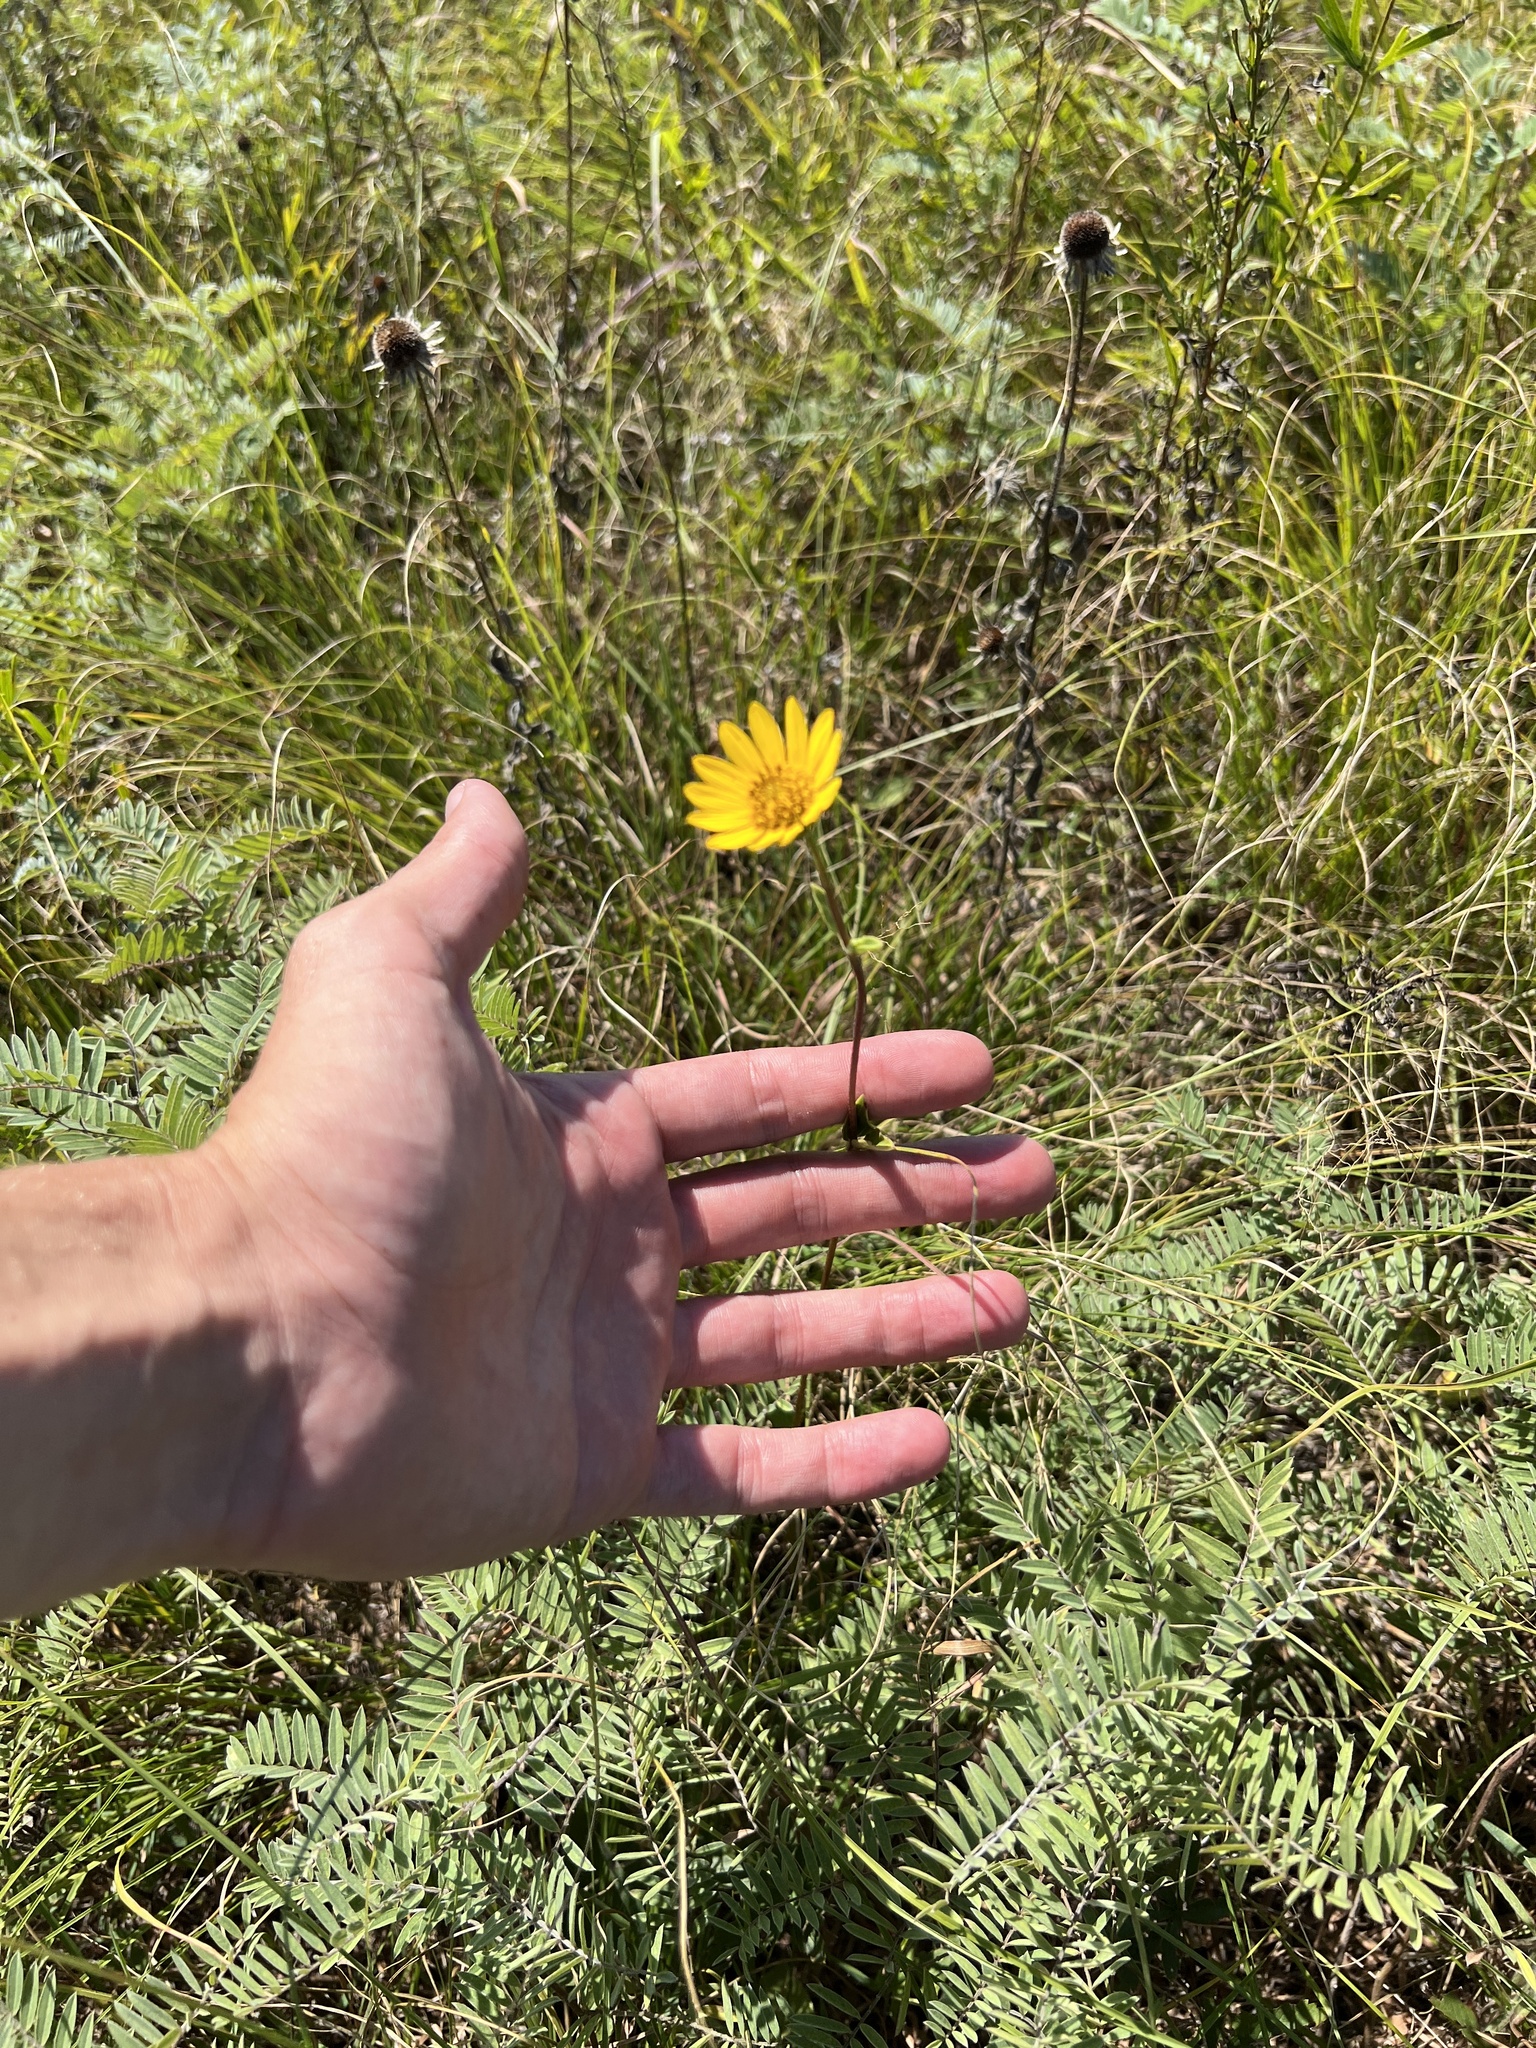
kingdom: Plantae
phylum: Tracheophyta
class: Magnoliopsida
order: Asterales
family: Asteraceae
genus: Helianthus
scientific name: Helianthus occidentalis
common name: Western sunflower
